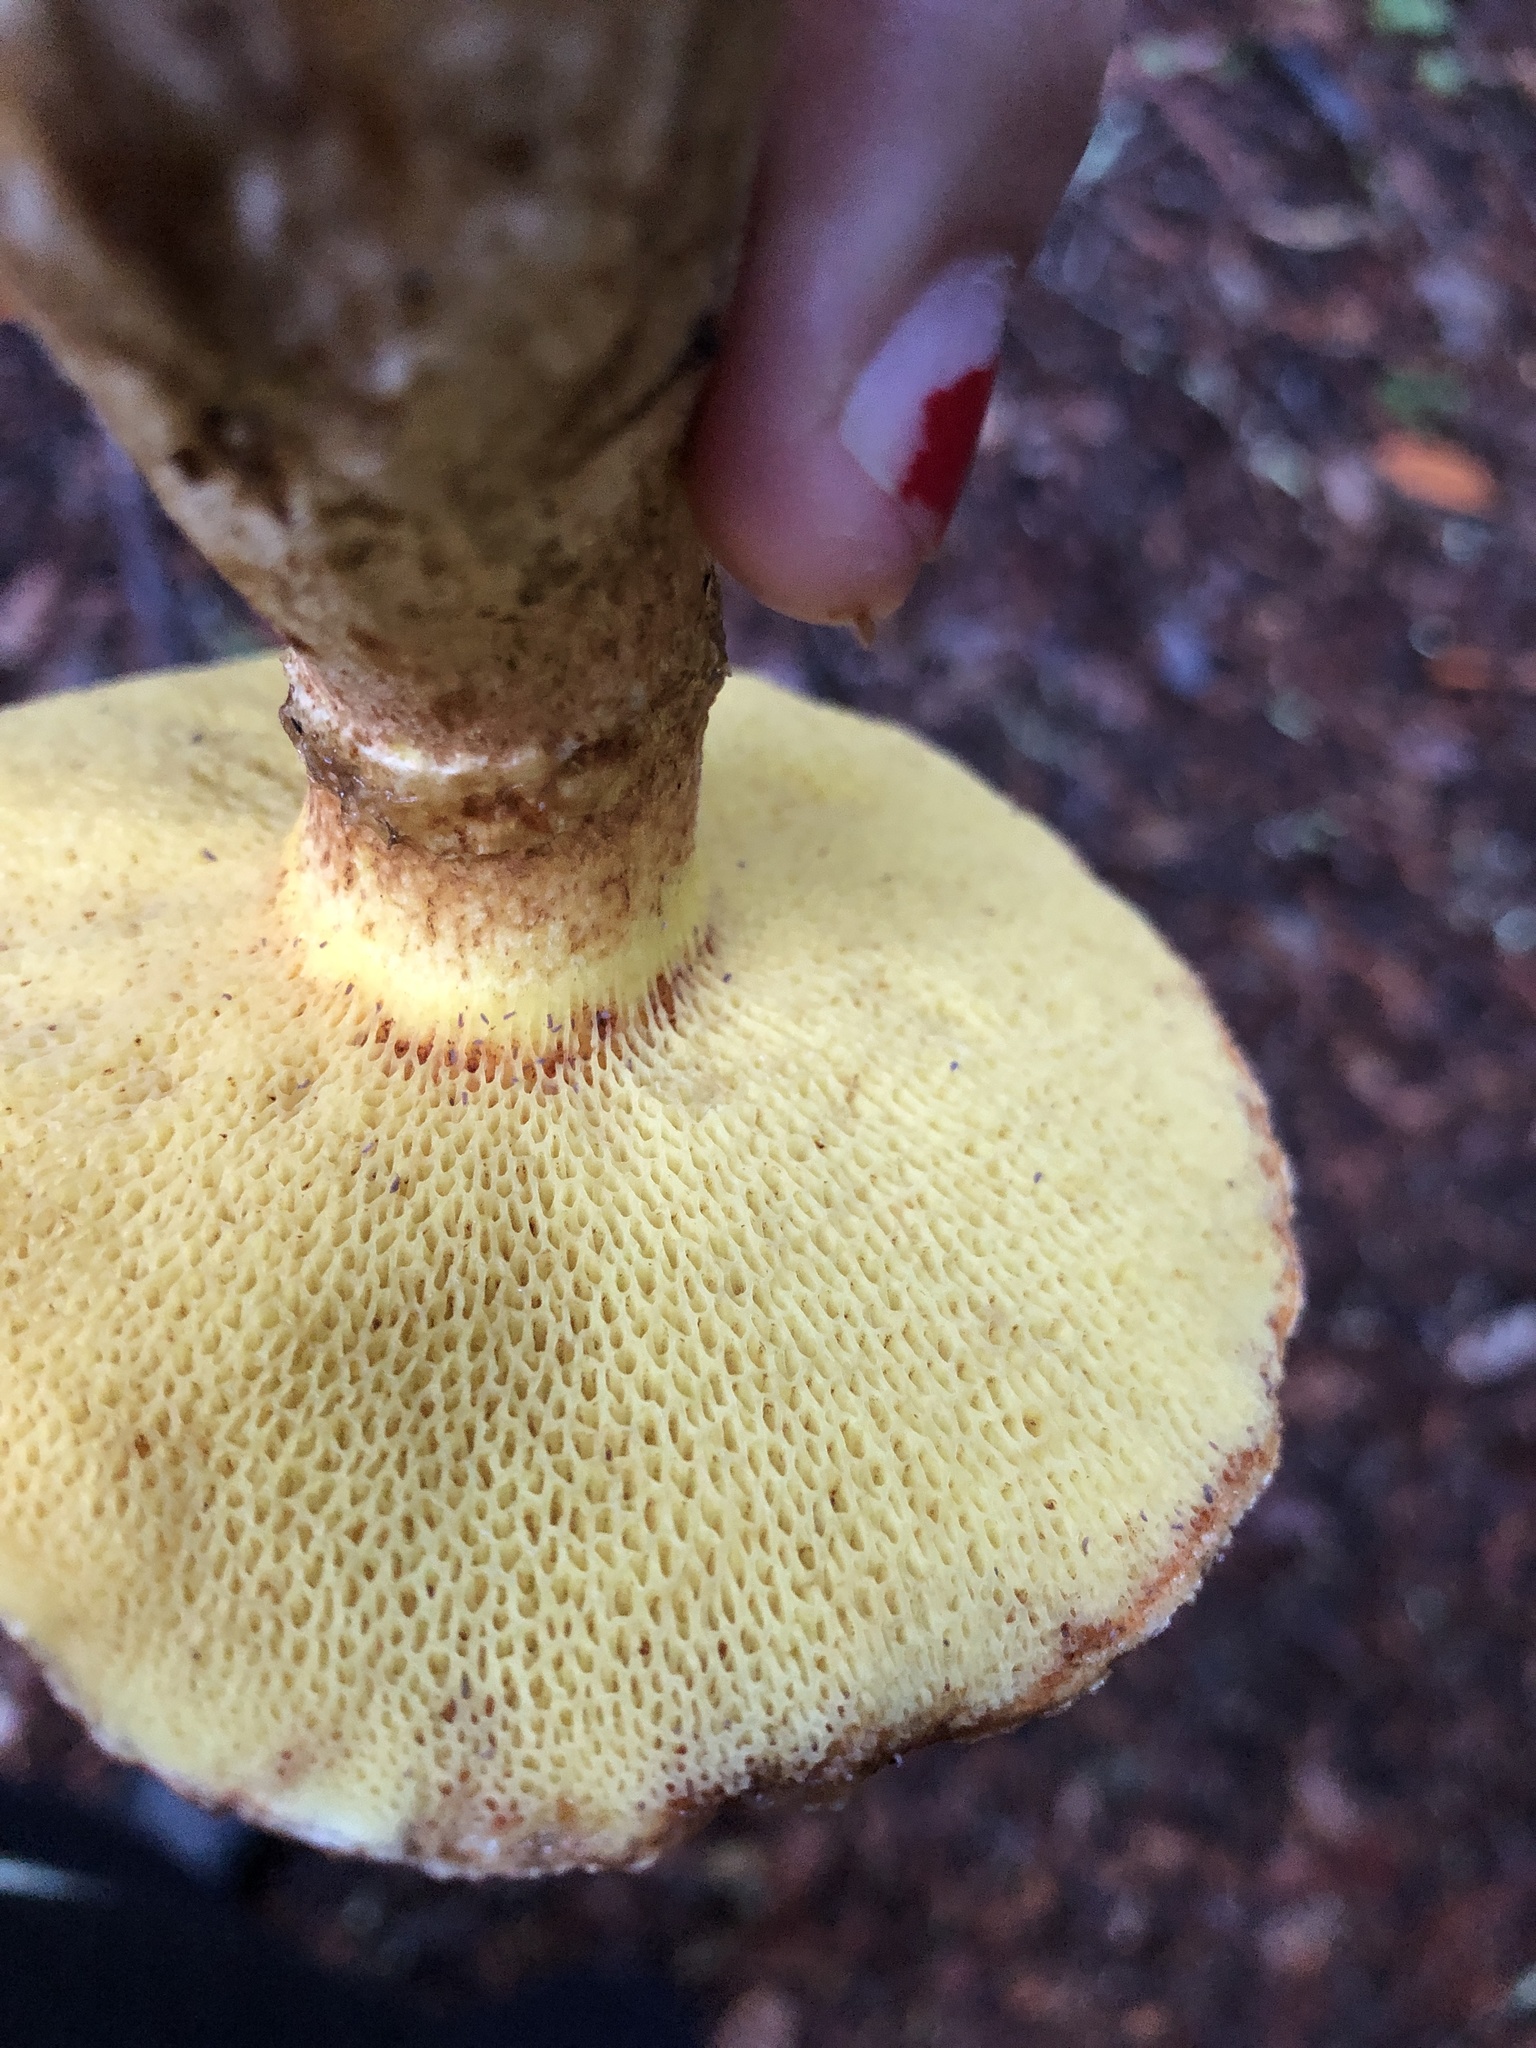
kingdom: Fungi
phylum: Basidiomycota
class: Agaricomycetes
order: Boletales
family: Suillaceae
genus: Suillus
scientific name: Suillus caerulescens
